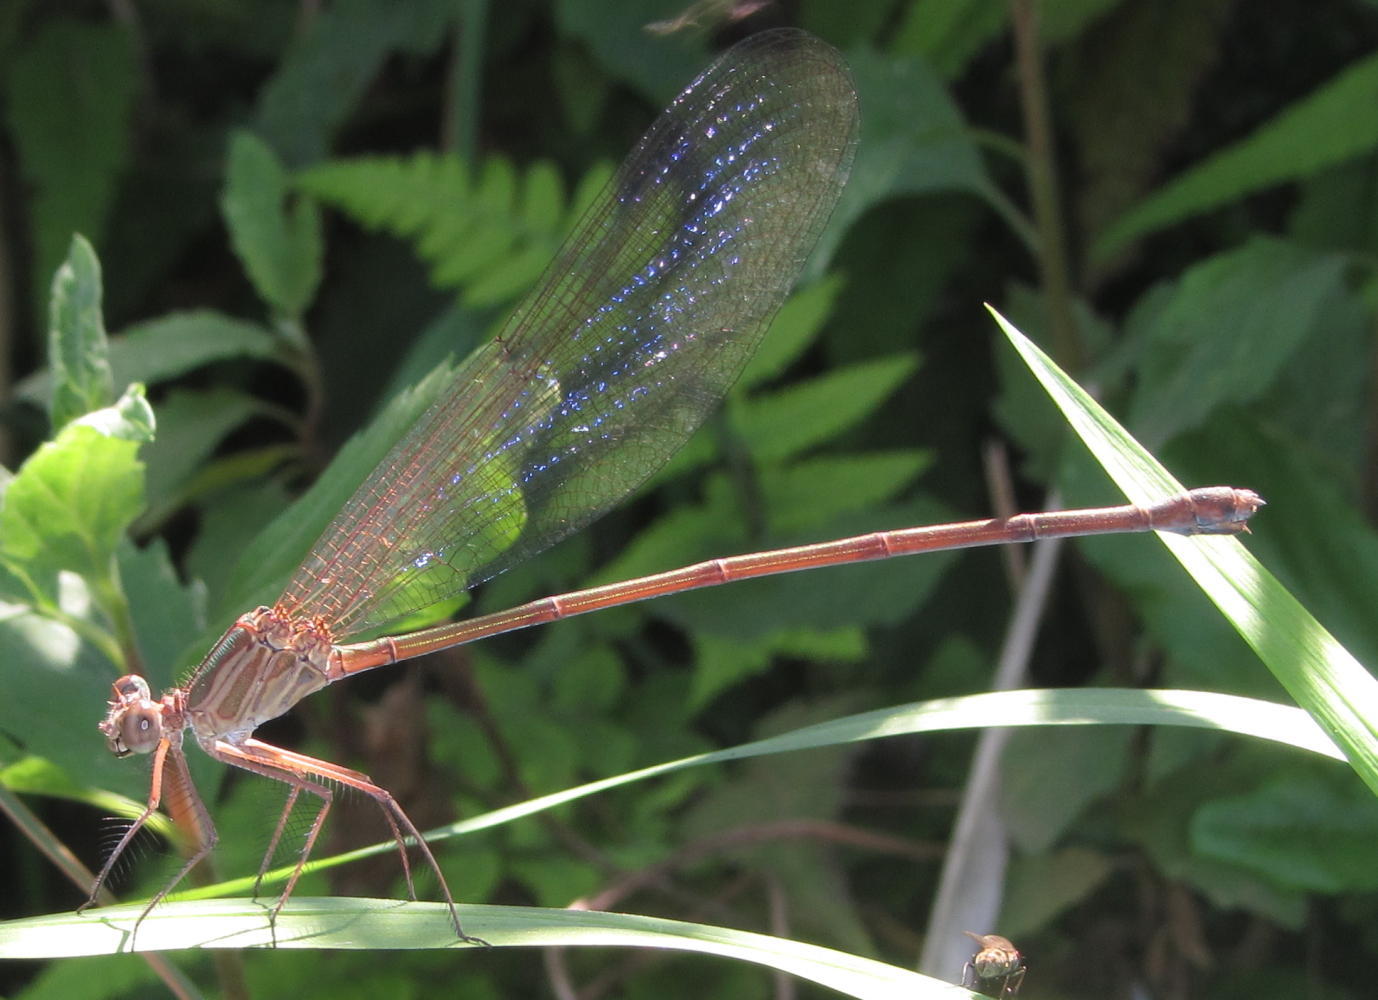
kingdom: Animalia
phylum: Arthropoda
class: Insecta
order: Odonata
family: Calopterygidae
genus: Phaon
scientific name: Phaon iridipennis
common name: Glistening demoiselle
